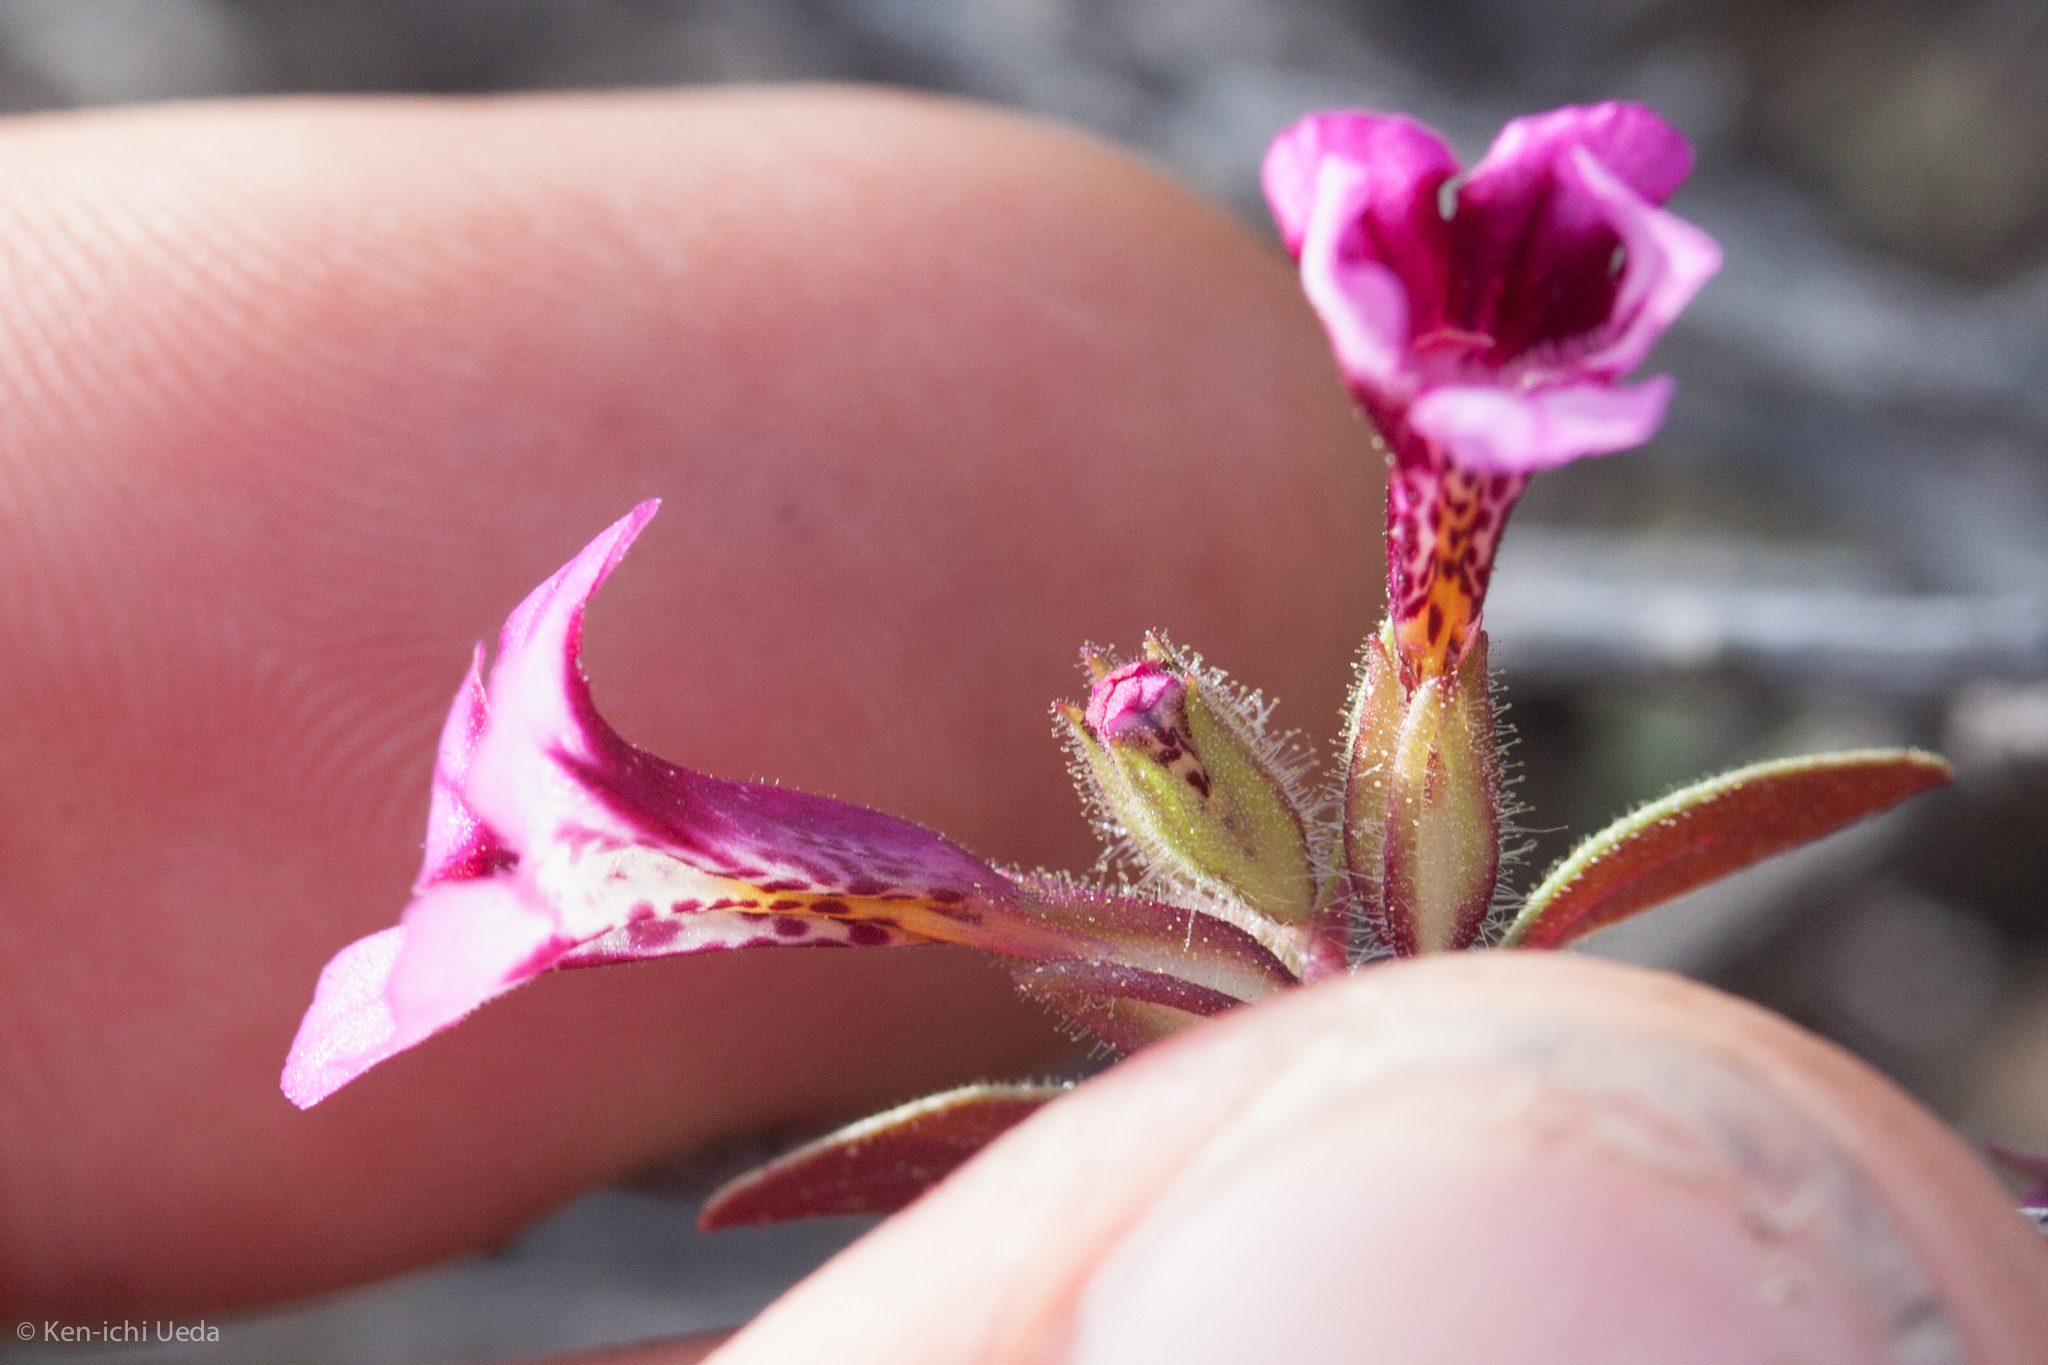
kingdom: Plantae
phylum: Tracheophyta
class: Magnoliopsida
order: Lamiales
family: Phrymaceae
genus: Diplacus
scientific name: Diplacus layneae
